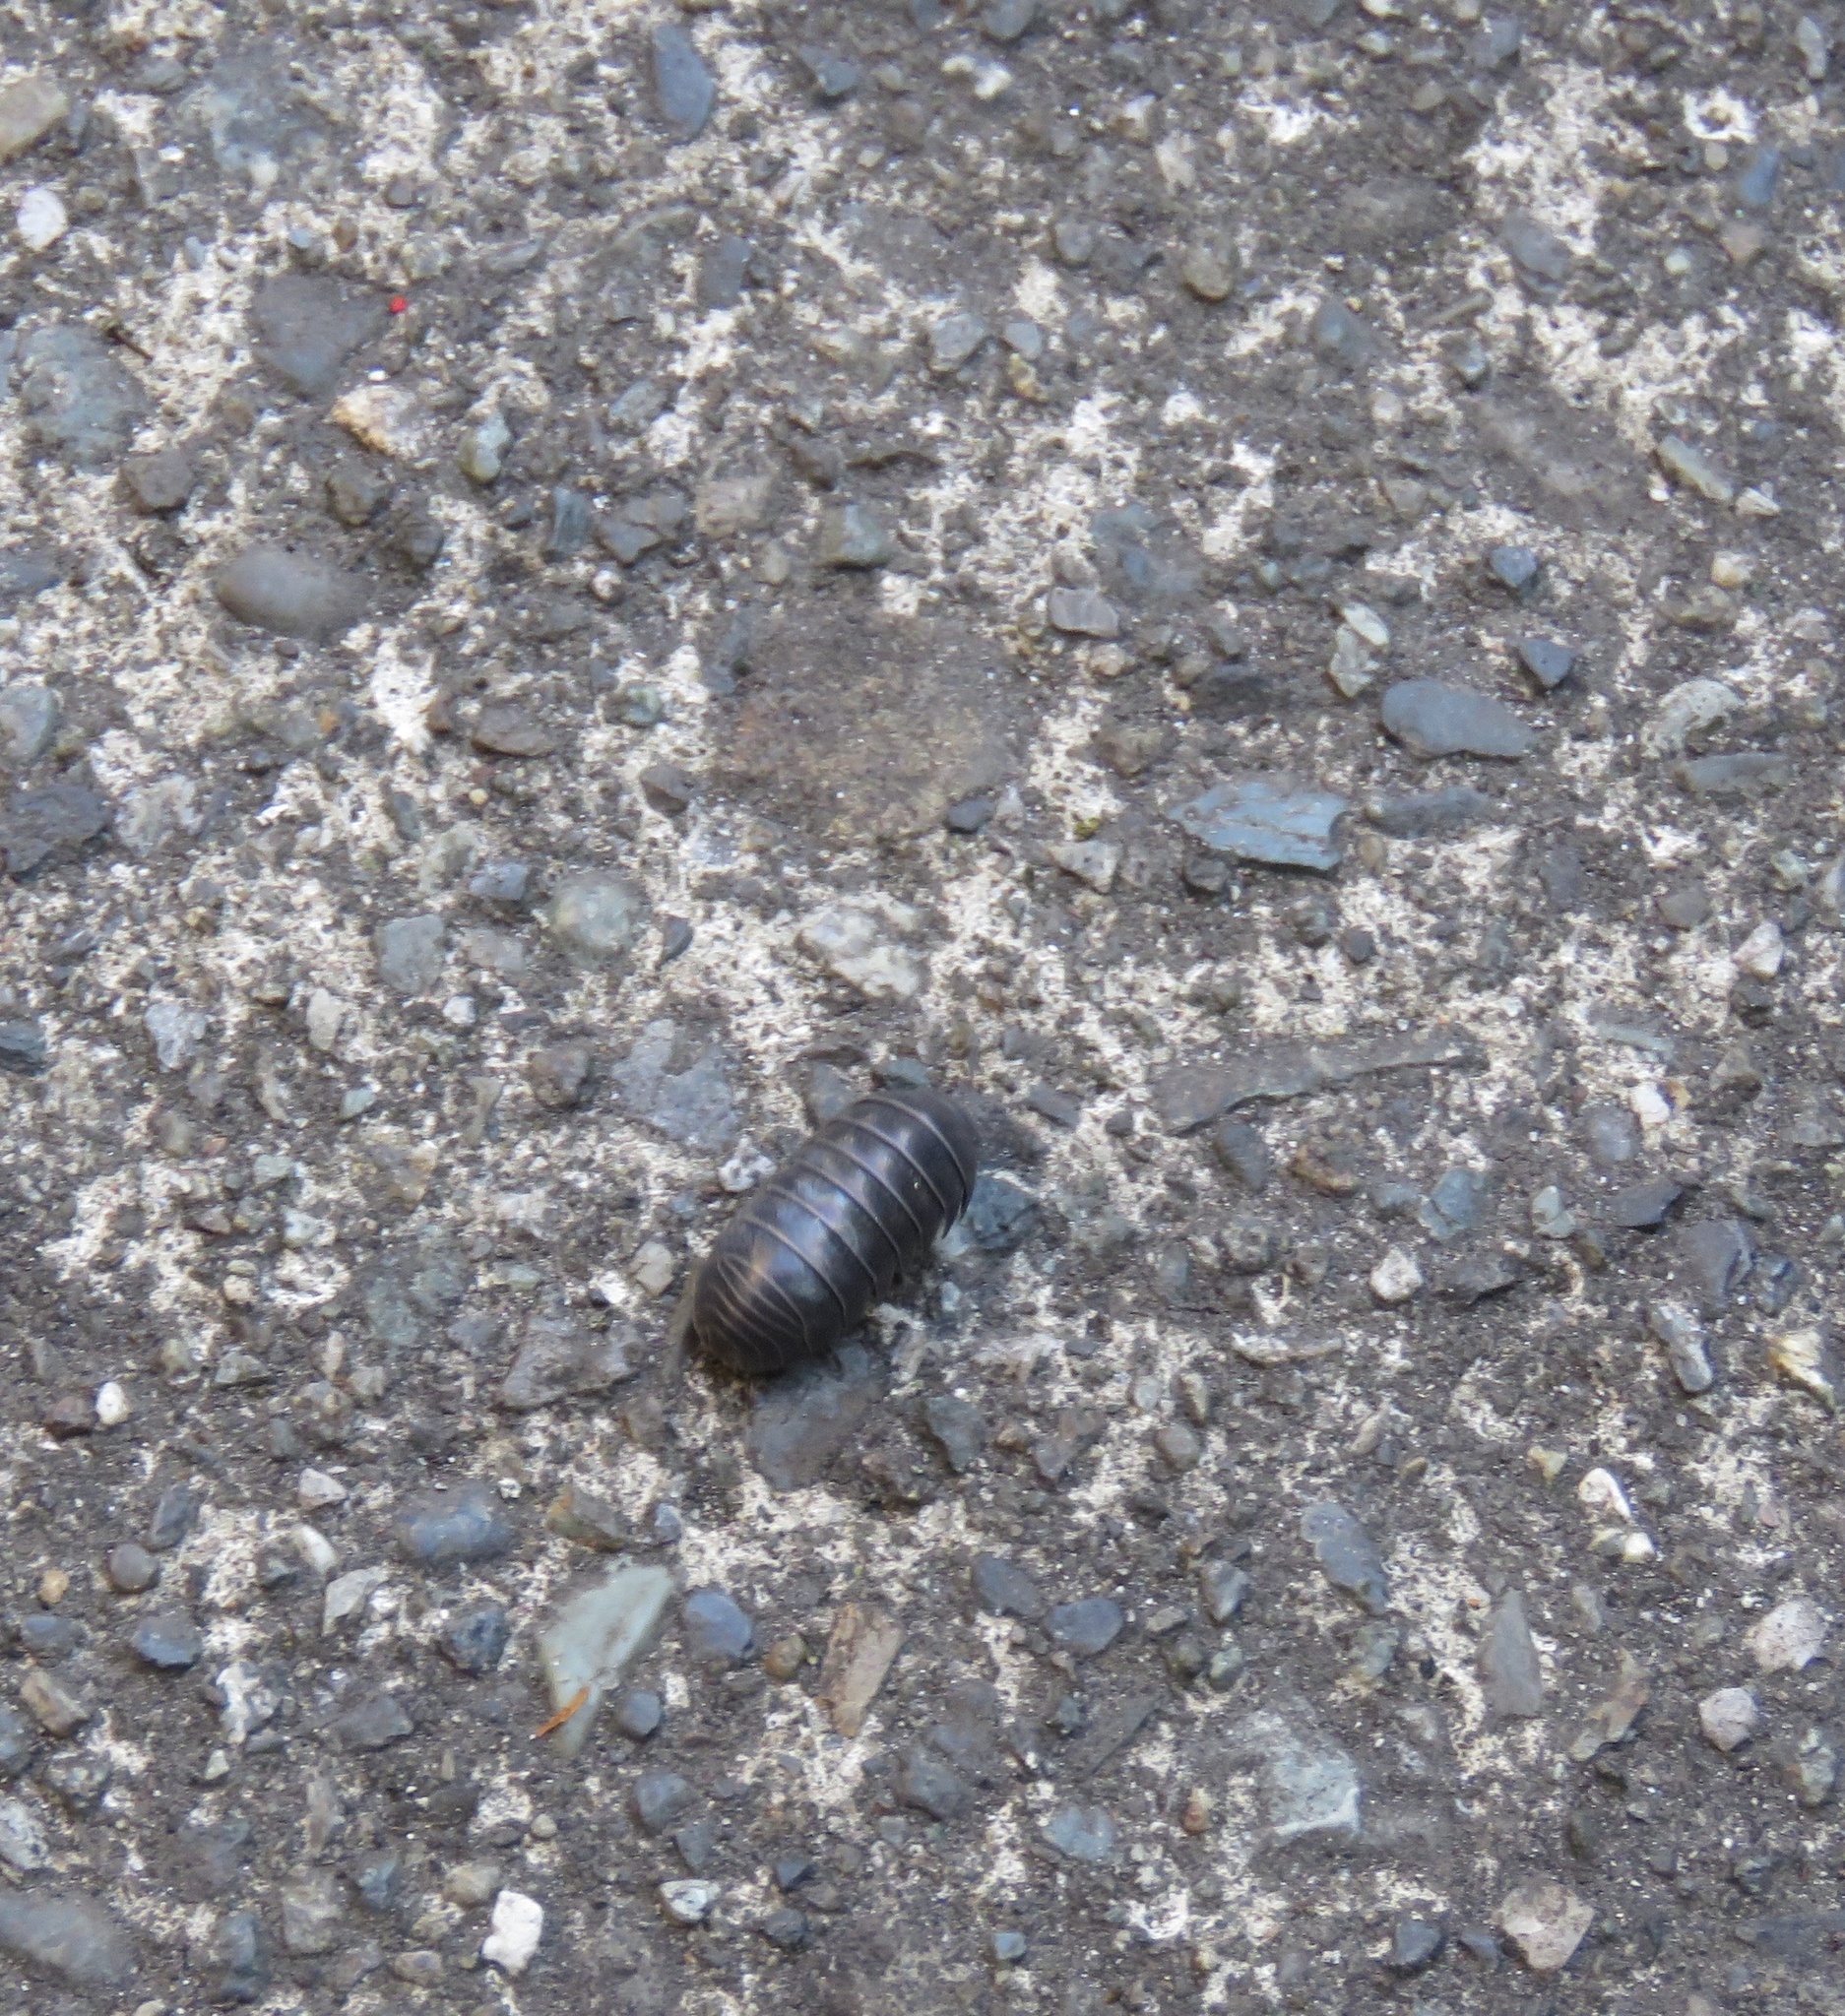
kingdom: Animalia
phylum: Arthropoda
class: Malacostraca
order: Isopoda
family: Armadillidiidae
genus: Armadillidium
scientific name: Armadillidium vulgare
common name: Common pill woodlouse
